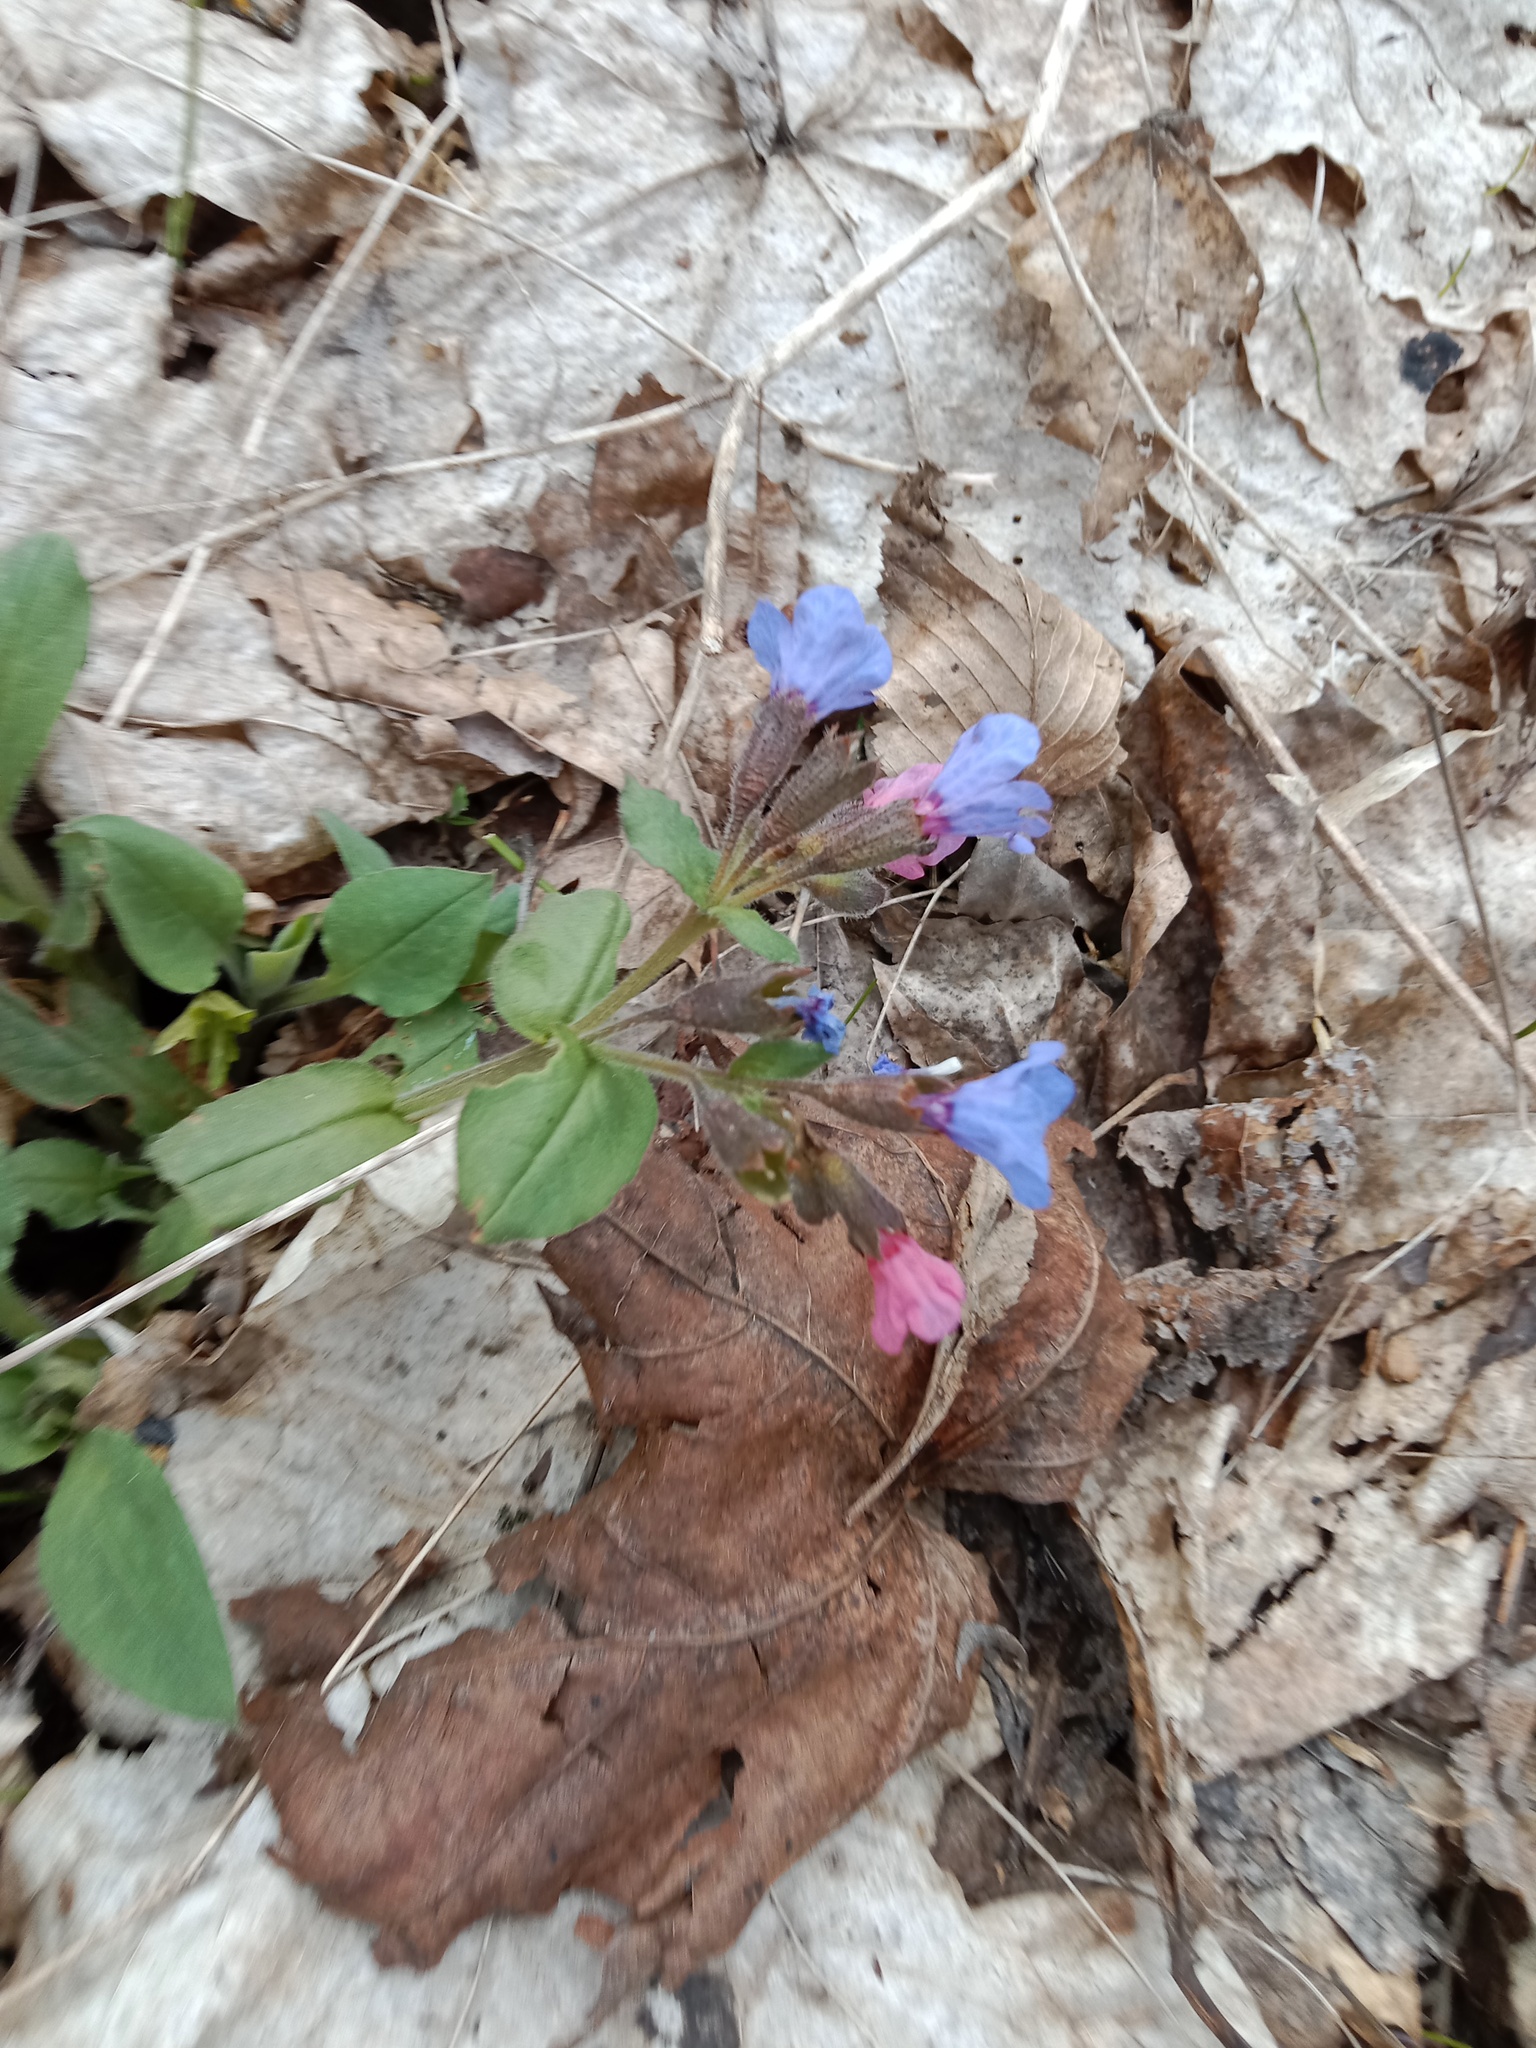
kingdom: Plantae
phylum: Tracheophyta
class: Magnoliopsida
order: Boraginales
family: Boraginaceae
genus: Pulmonaria
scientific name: Pulmonaria obscura
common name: Suffolk lungwort
